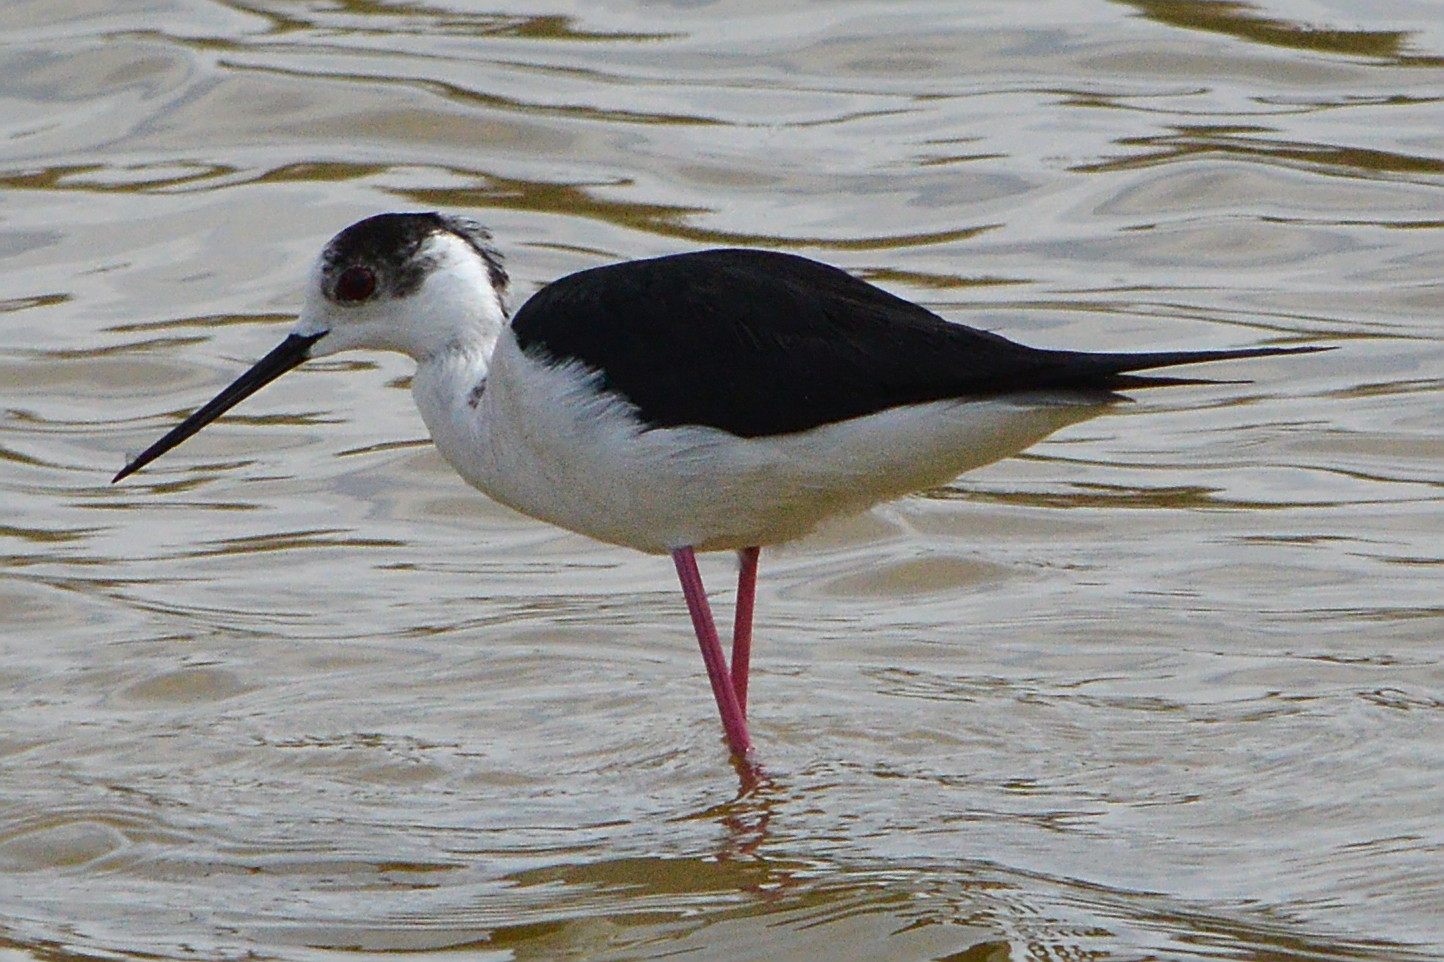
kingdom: Animalia
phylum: Chordata
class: Aves
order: Charadriiformes
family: Recurvirostridae
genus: Himantopus
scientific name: Himantopus himantopus
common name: Black-winged stilt
